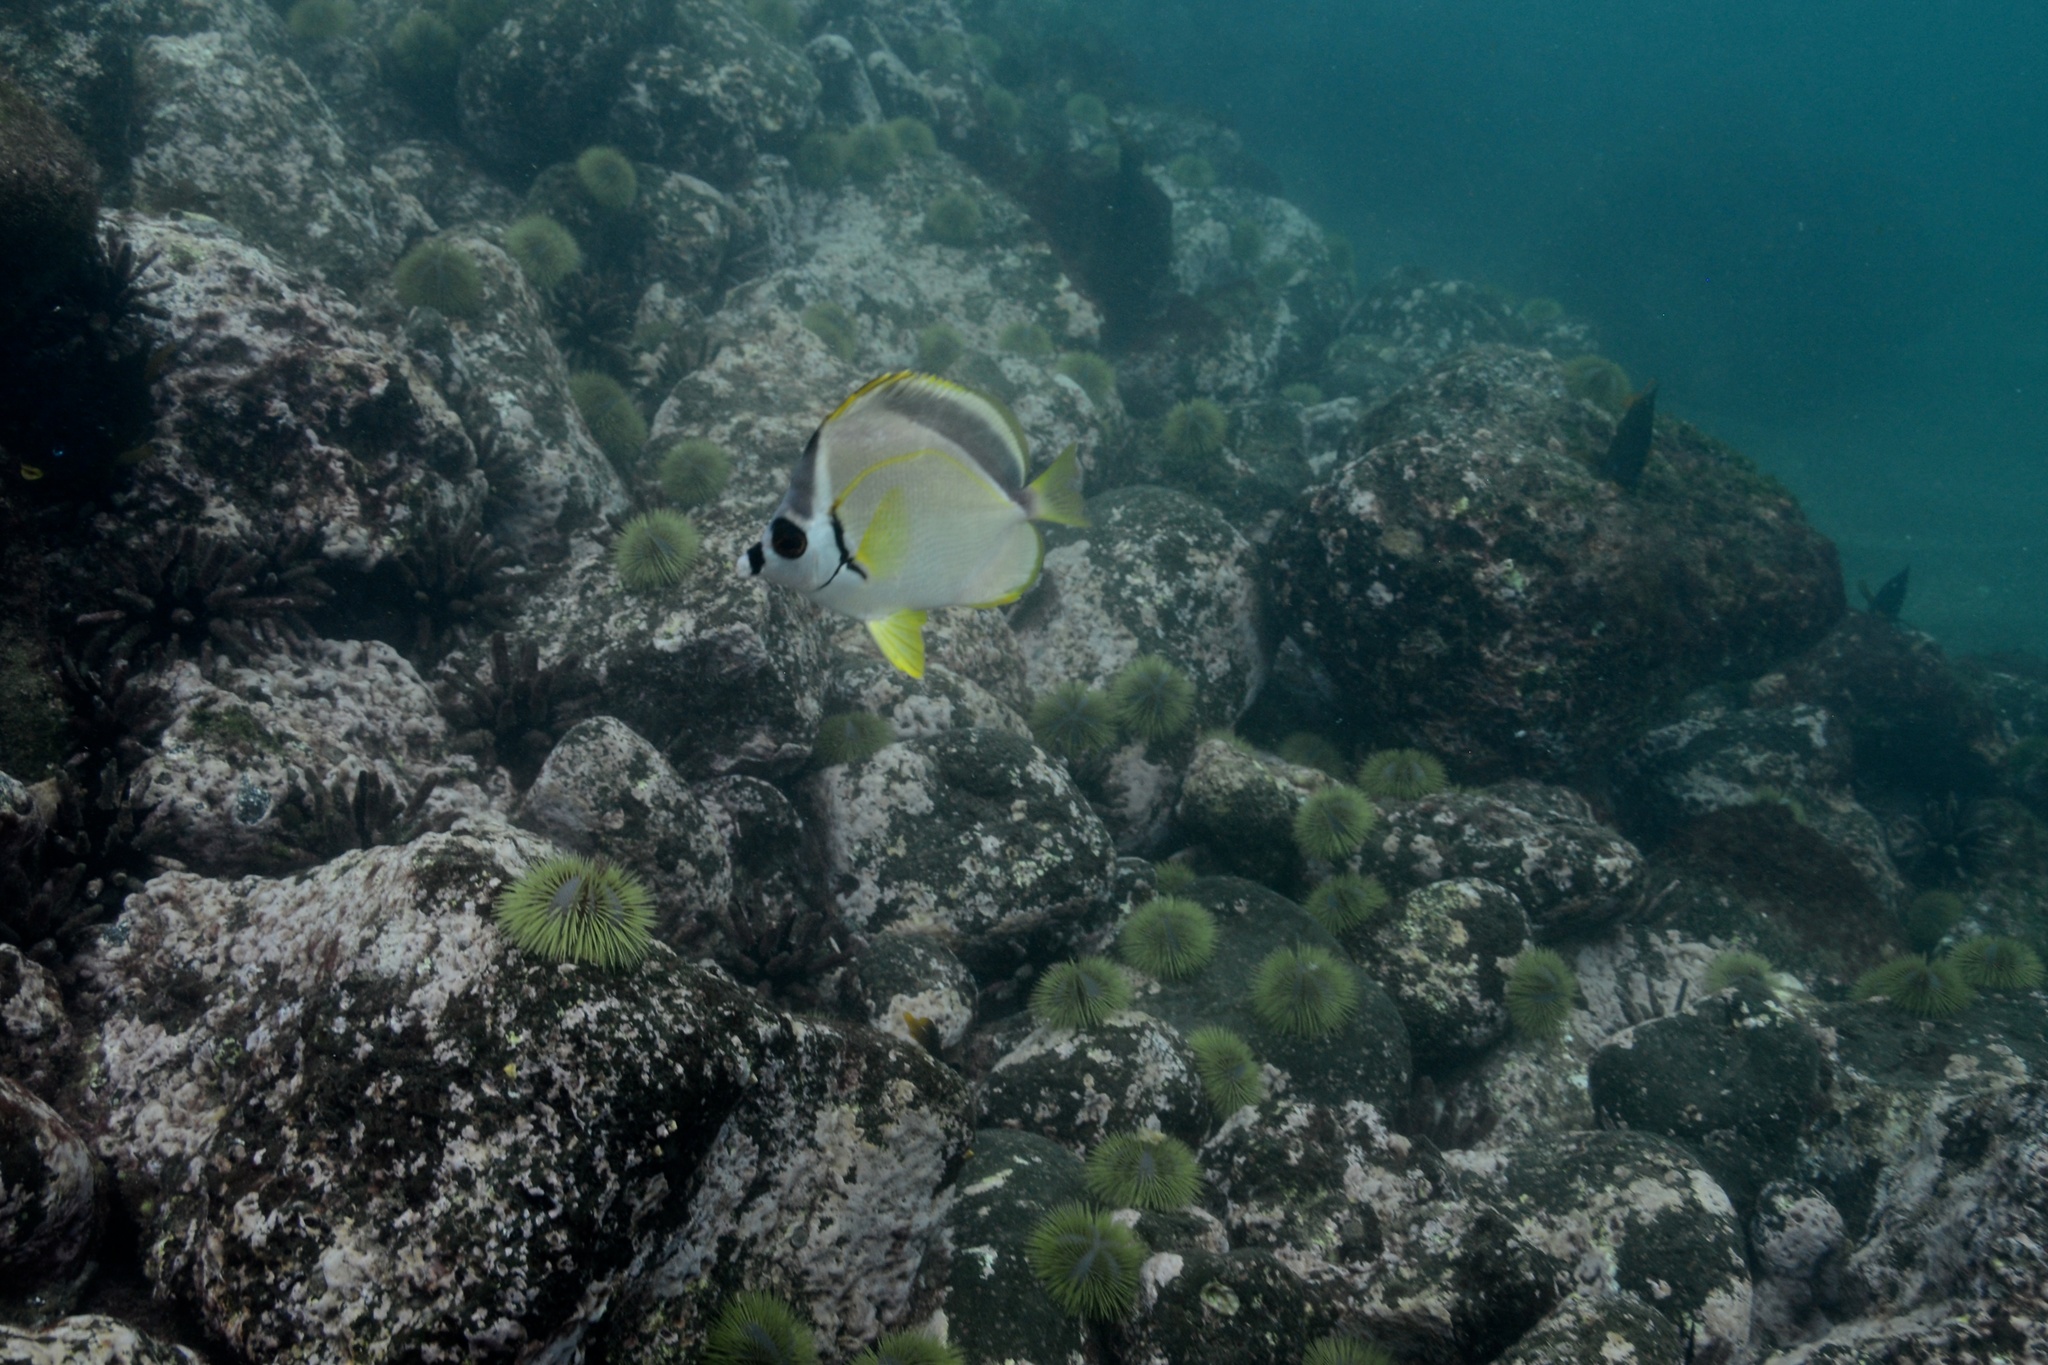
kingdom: Animalia
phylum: Chordata
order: Perciformes
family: Chaetodontidae
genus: Johnrandallia
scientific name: Johnrandallia nigrirostris
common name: Barberfish
